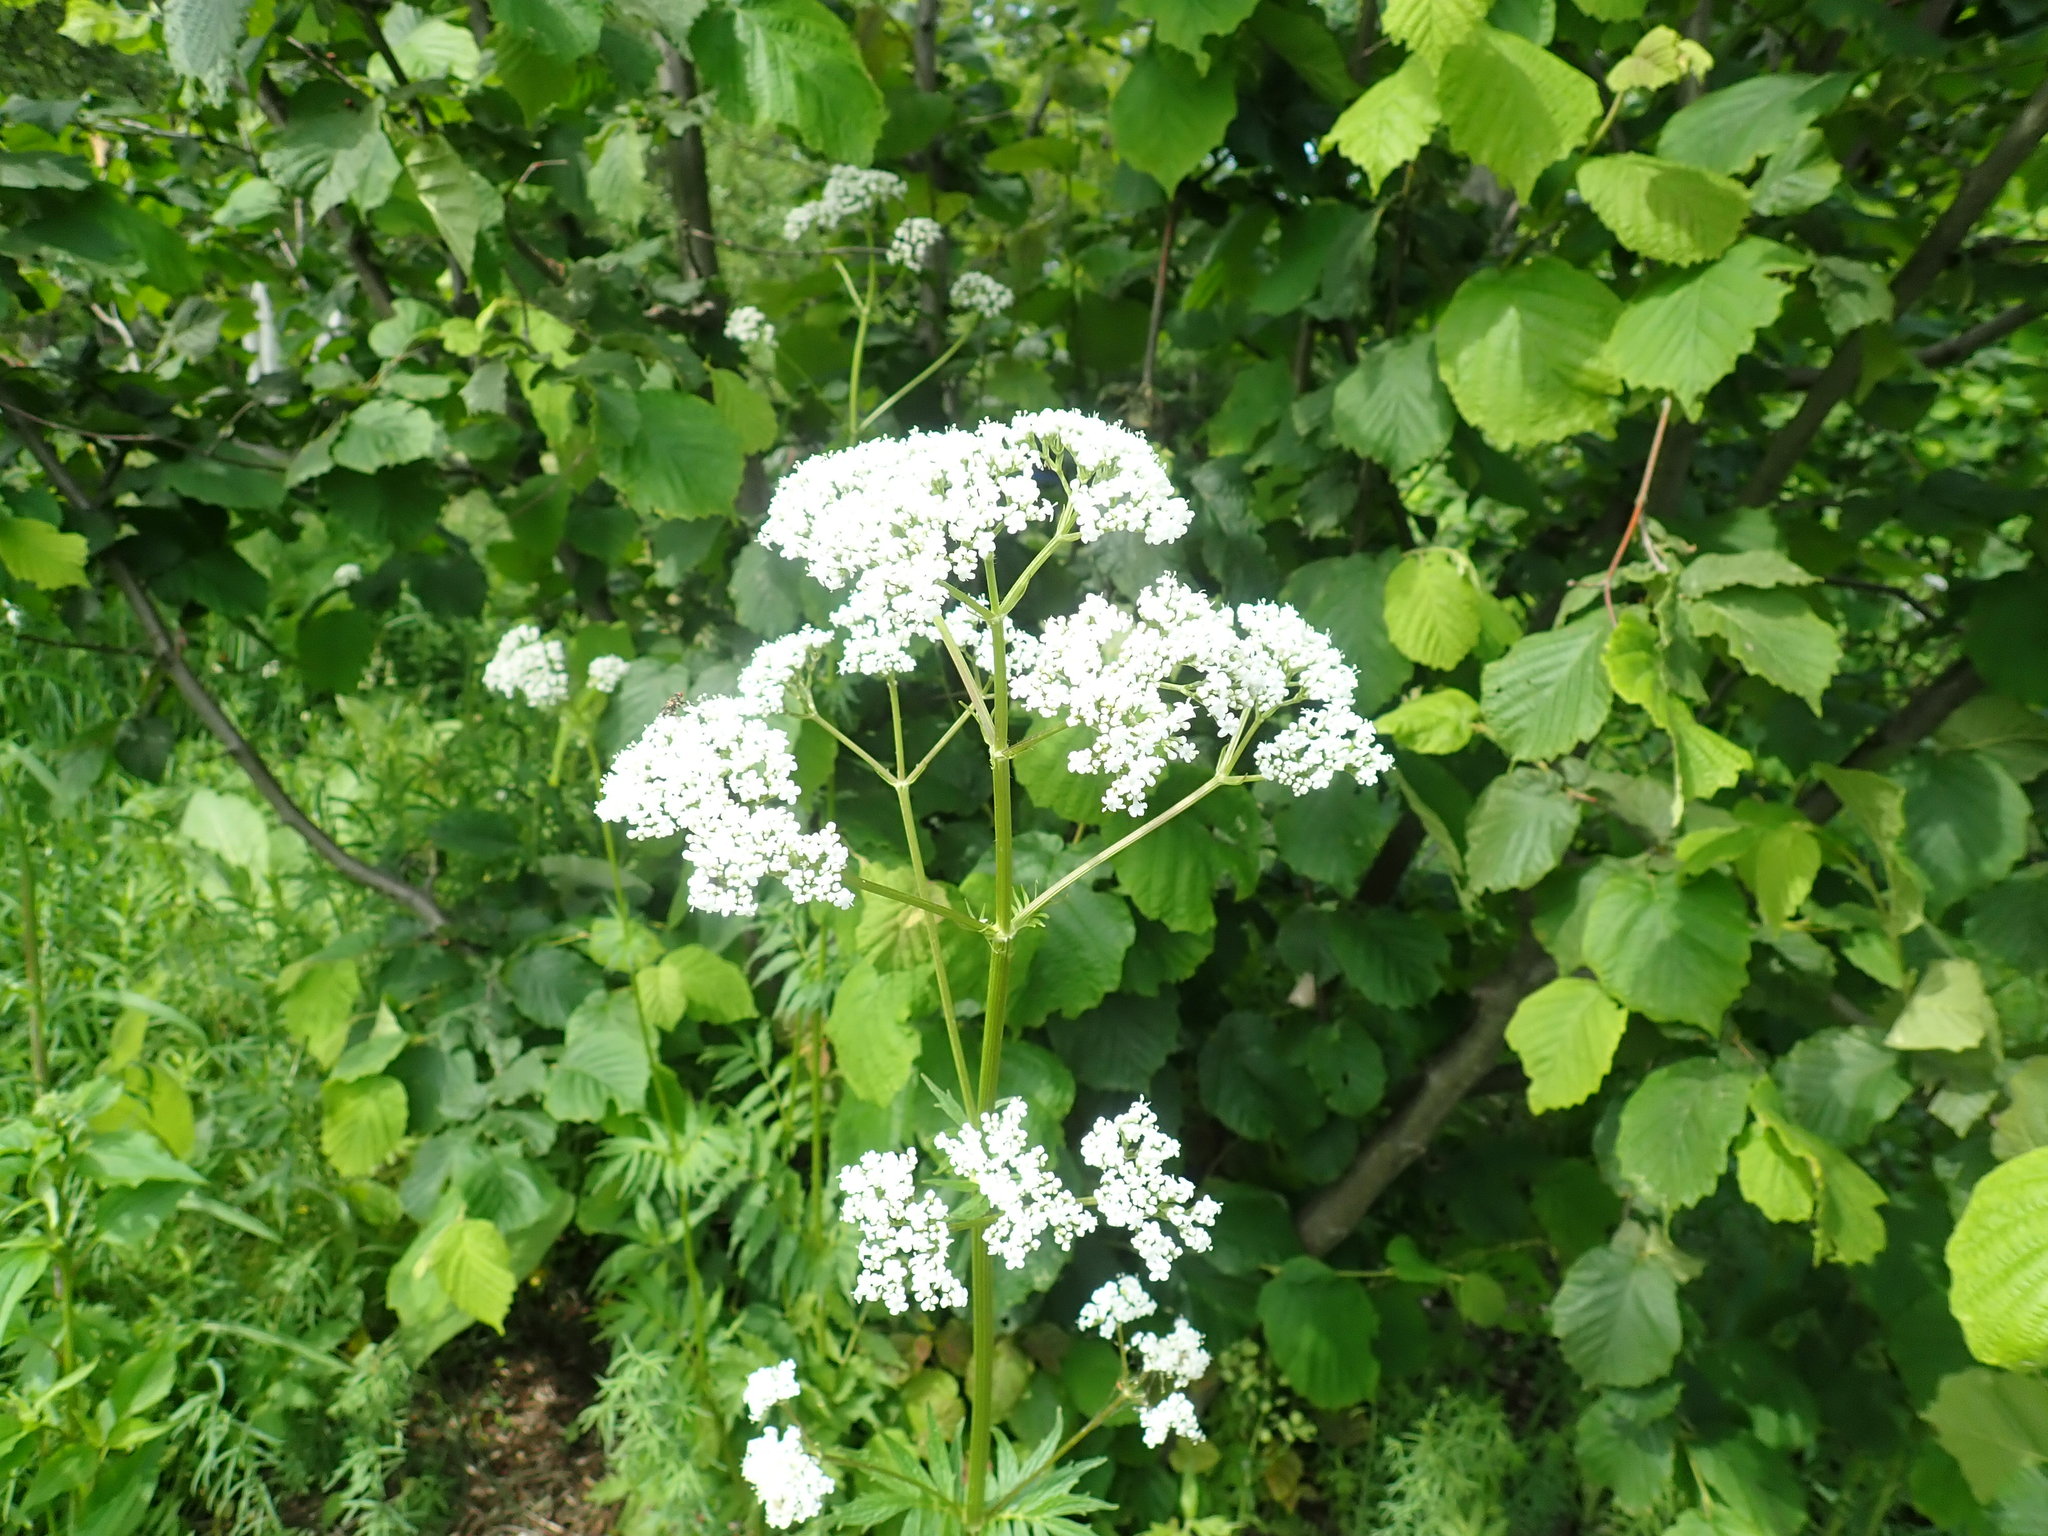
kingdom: Plantae
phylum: Tracheophyta
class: Magnoliopsida
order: Dipsacales
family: Caprifoliaceae
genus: Valeriana
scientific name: Valeriana officinalis
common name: Common valerian
